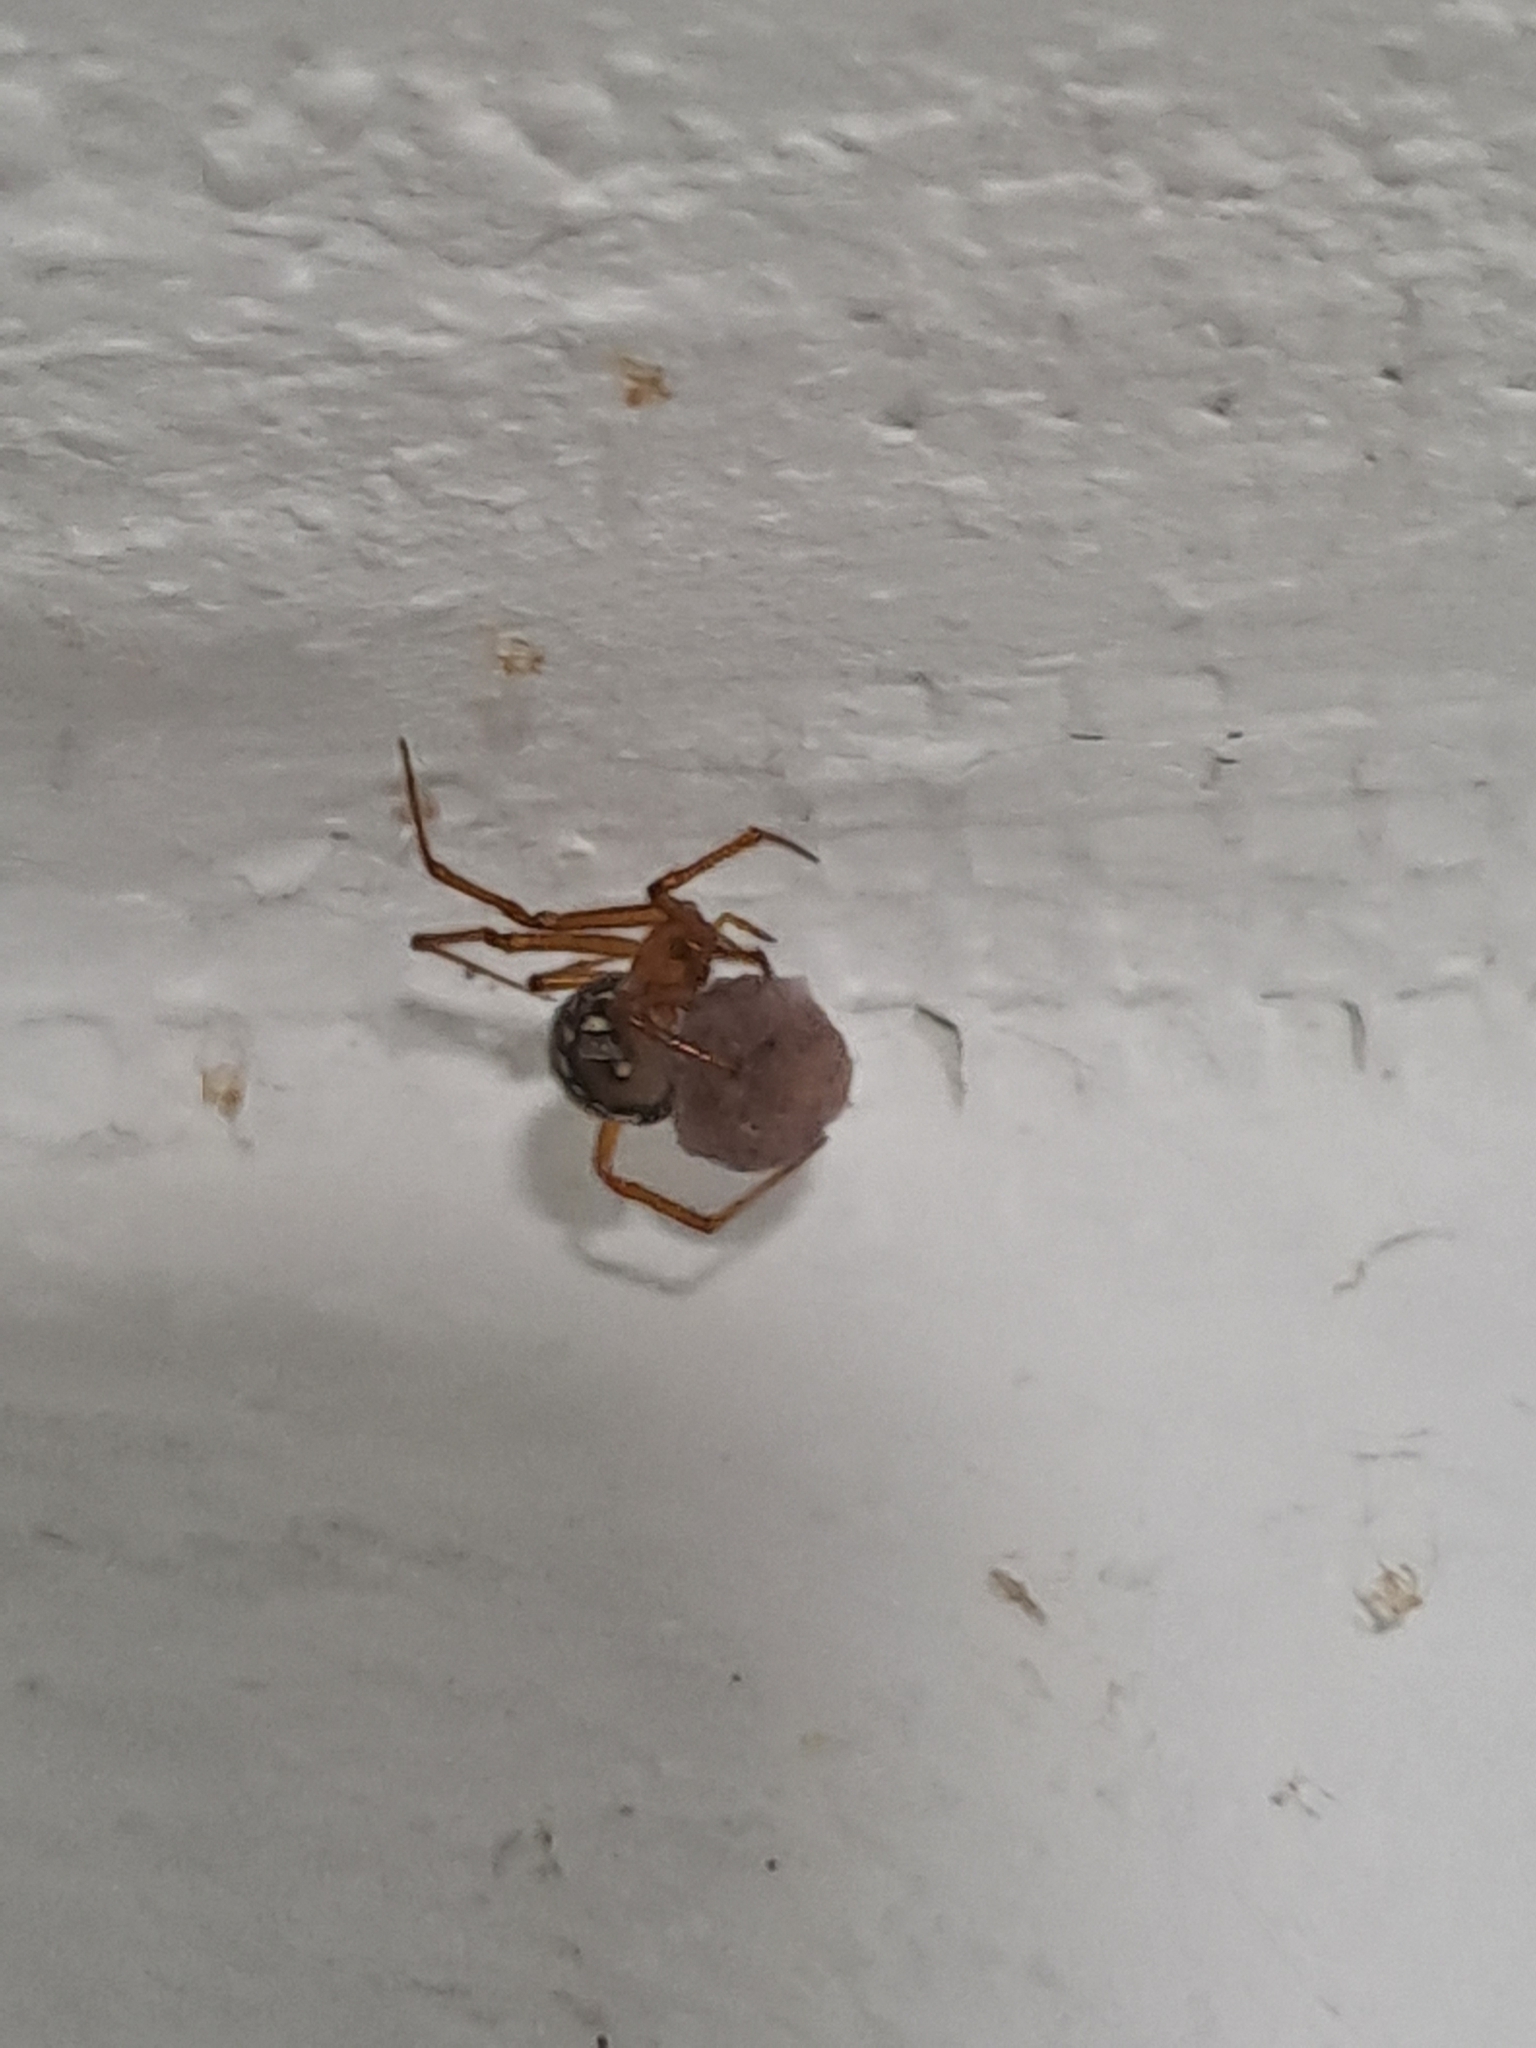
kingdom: Animalia
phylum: Arthropoda
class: Arachnida
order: Araneae
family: Theridiidae
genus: Nesticodes
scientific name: Nesticodes rufipes
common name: Cobweb spiders
